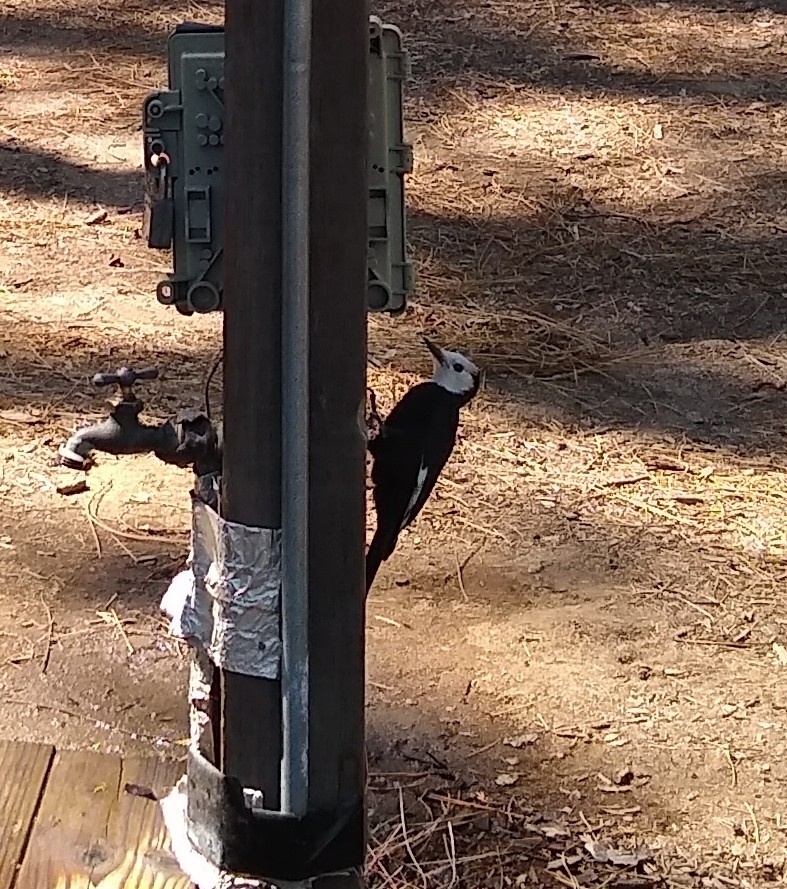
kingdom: Animalia
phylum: Chordata
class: Aves
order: Piciformes
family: Picidae
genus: Leuconotopicus
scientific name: Leuconotopicus albolarvatus
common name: White-headed woodpecker
